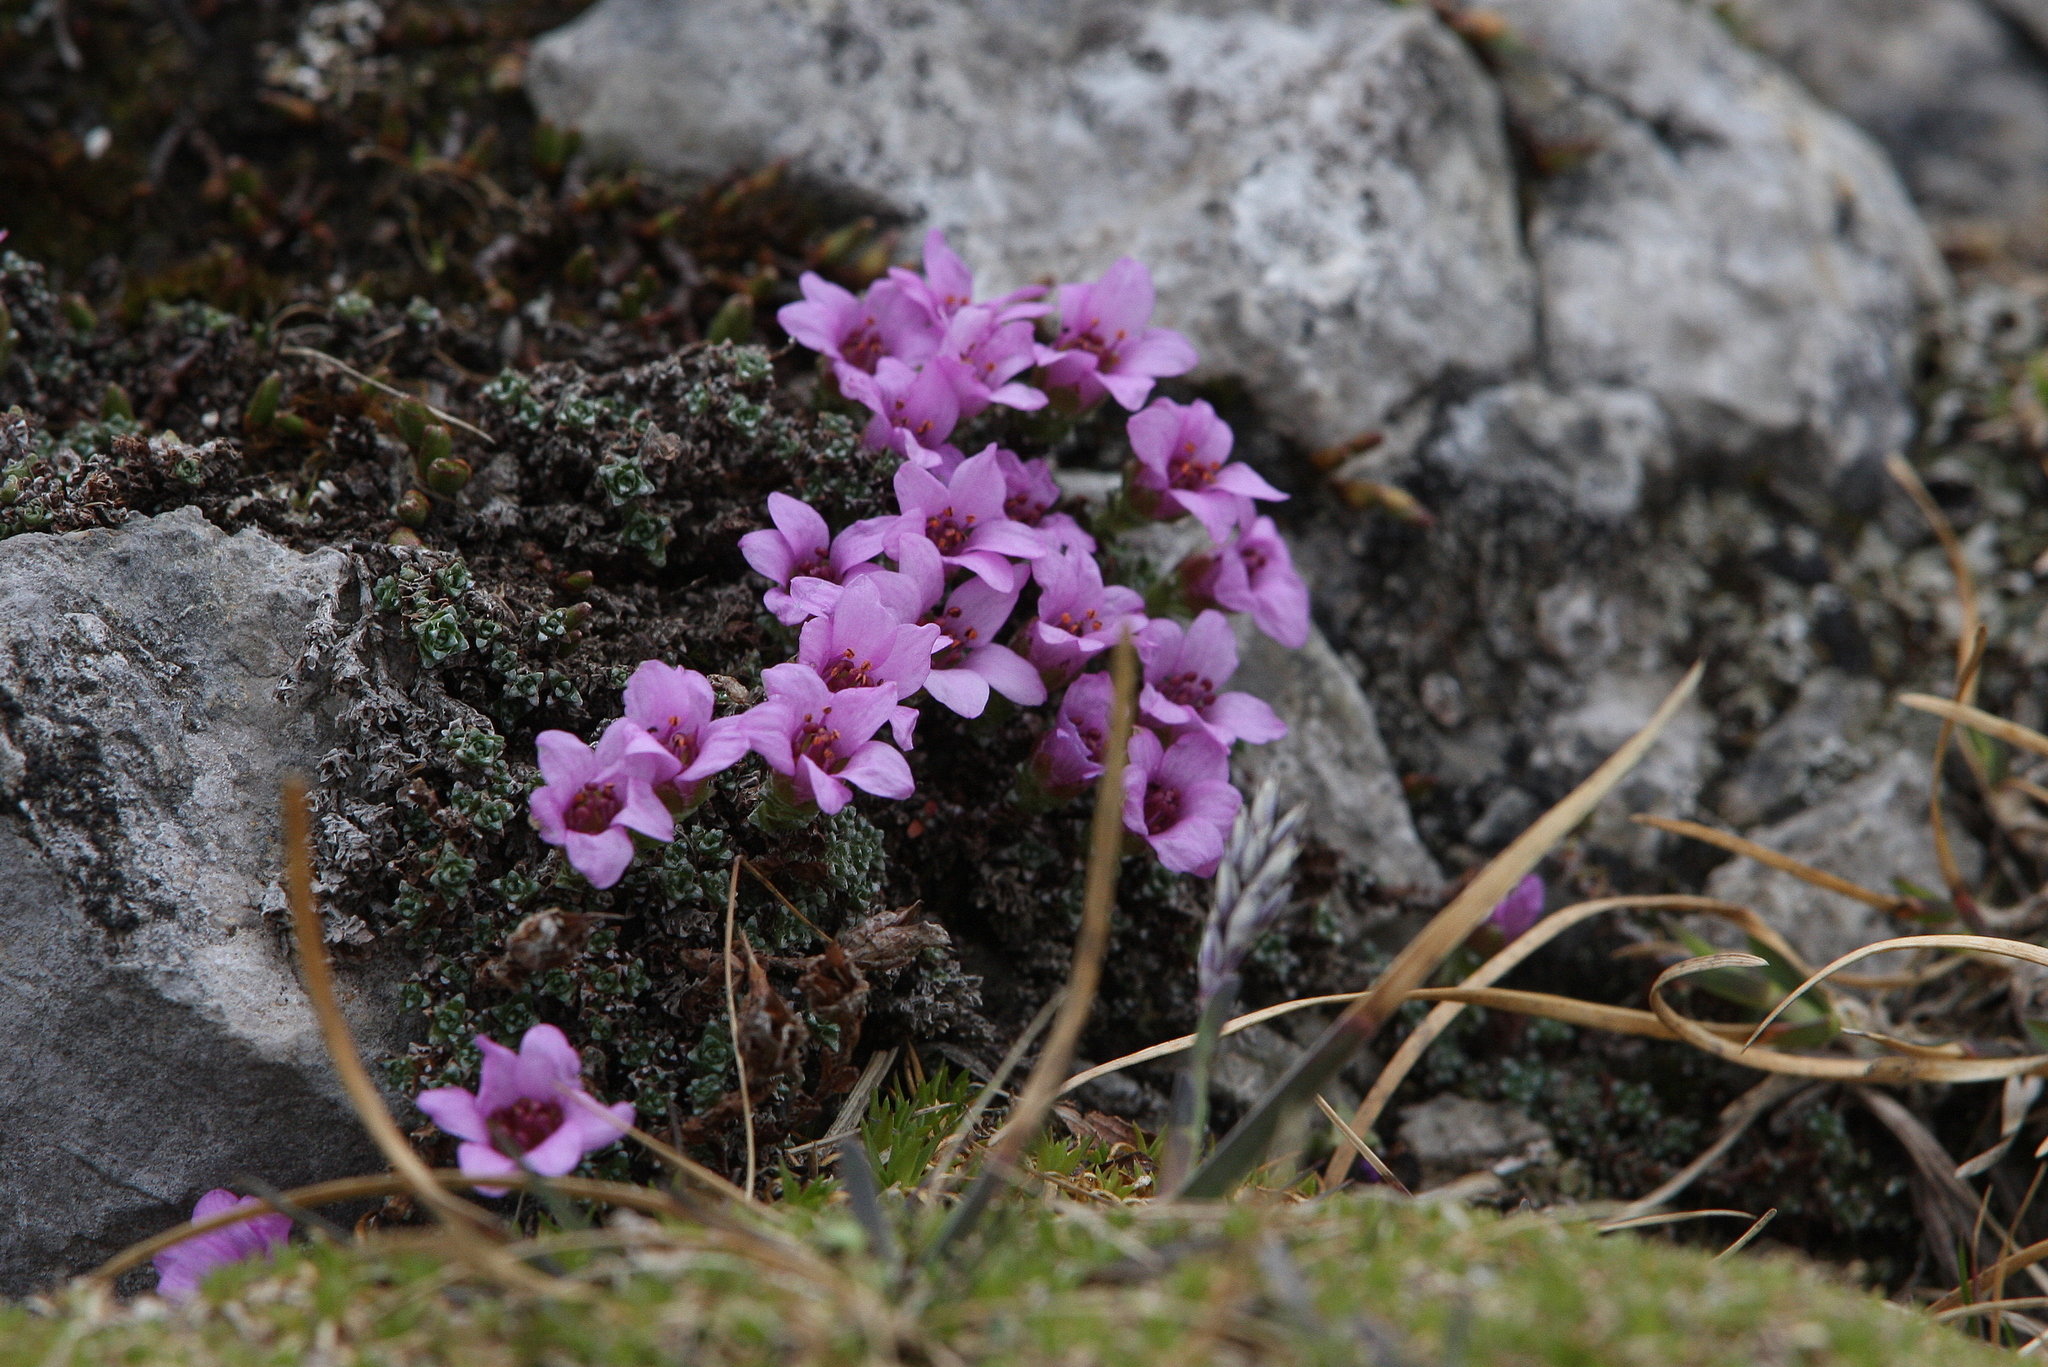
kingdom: Plantae
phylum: Tracheophyta
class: Magnoliopsida
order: Saxifragales
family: Saxifragaceae
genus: Saxifraga
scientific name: Saxifraga oppositifolia
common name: Purple saxifrage
